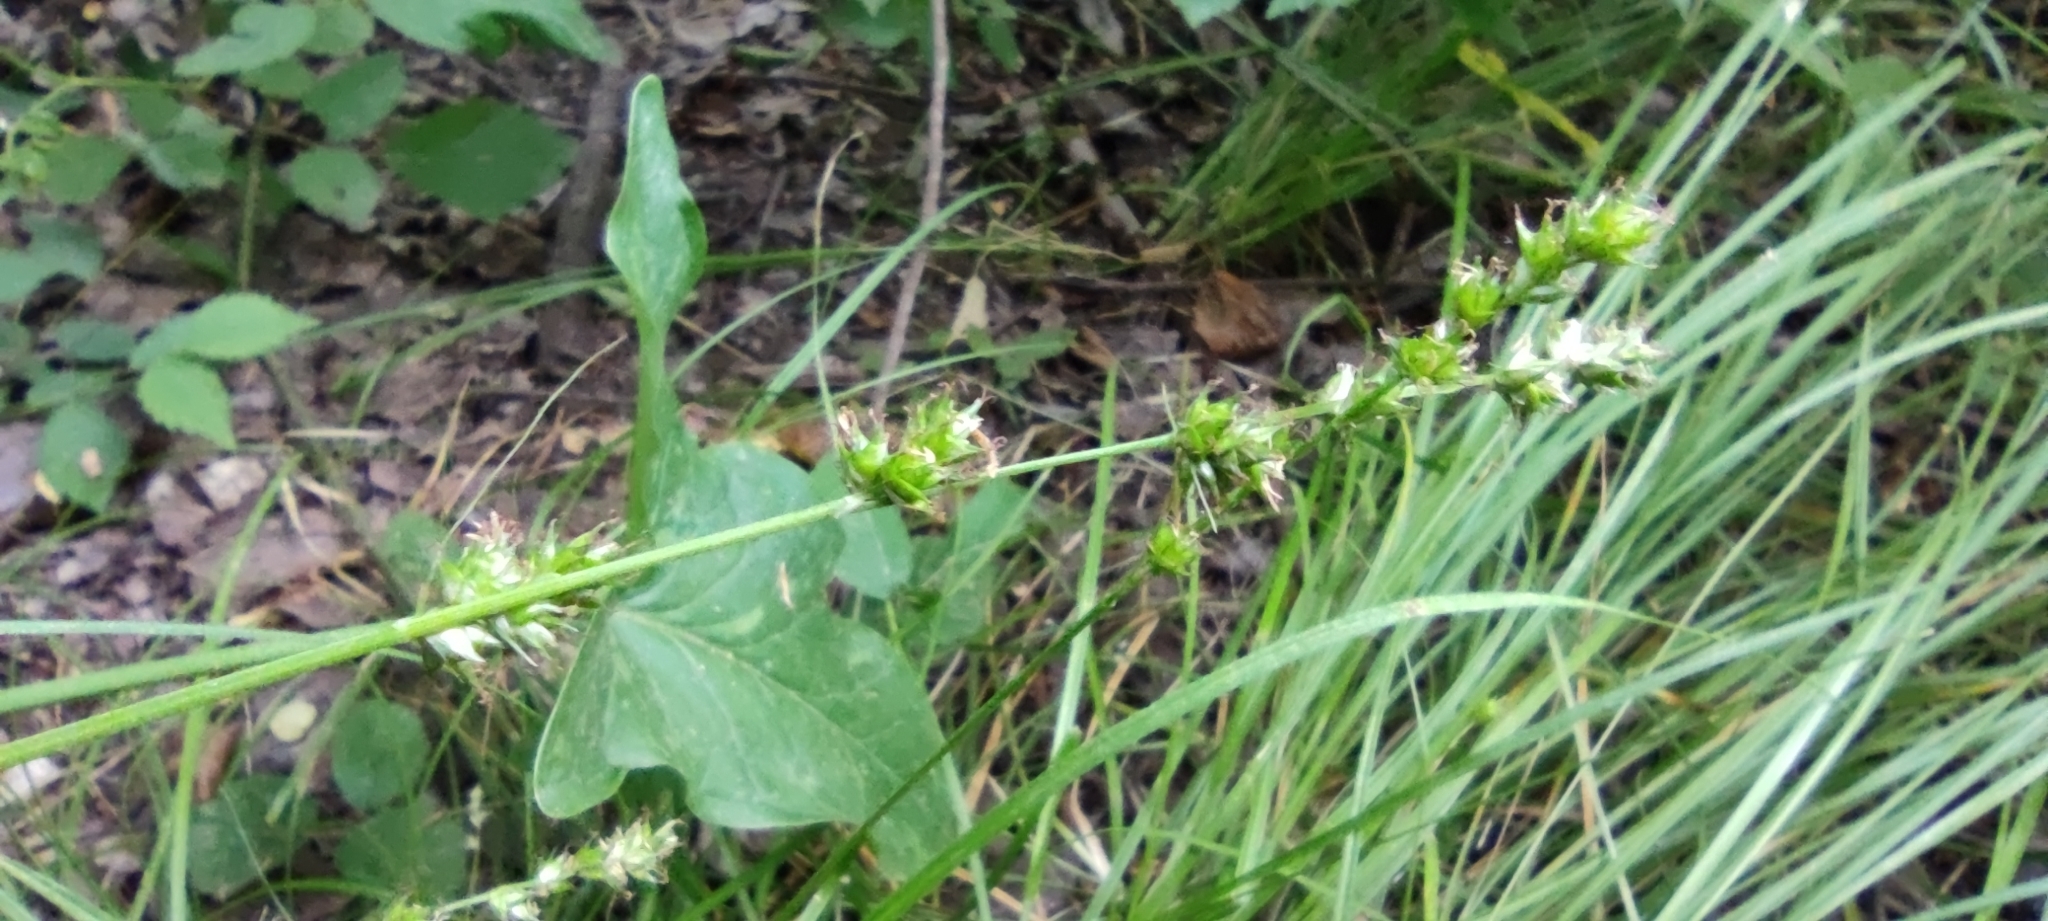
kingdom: Plantae
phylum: Tracheophyta
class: Liliopsida
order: Poales
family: Cyperaceae
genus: Carex
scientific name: Carex divulsa
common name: Grassland sedge
